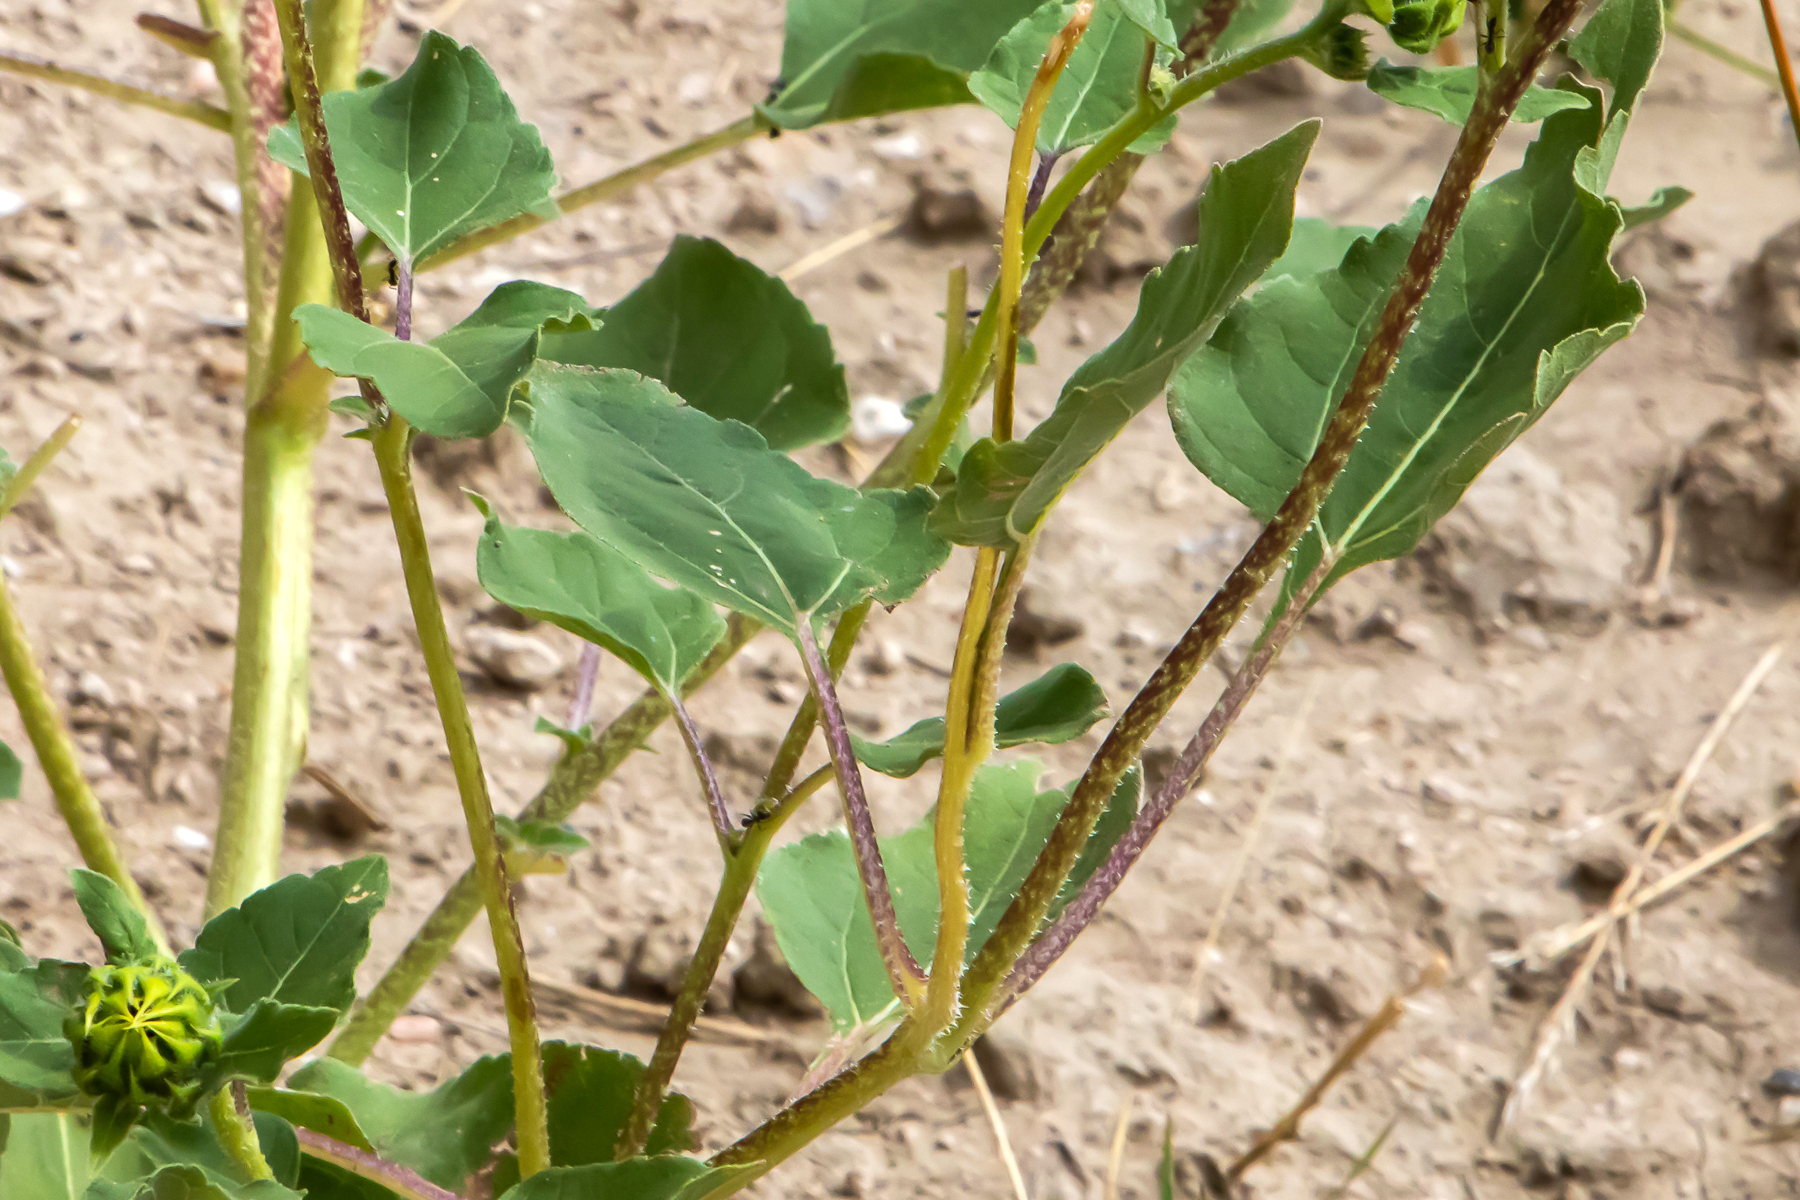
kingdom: Plantae
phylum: Tracheophyta
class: Magnoliopsida
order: Asterales
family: Asteraceae
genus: Helianthus
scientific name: Helianthus annuus
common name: Sunflower
